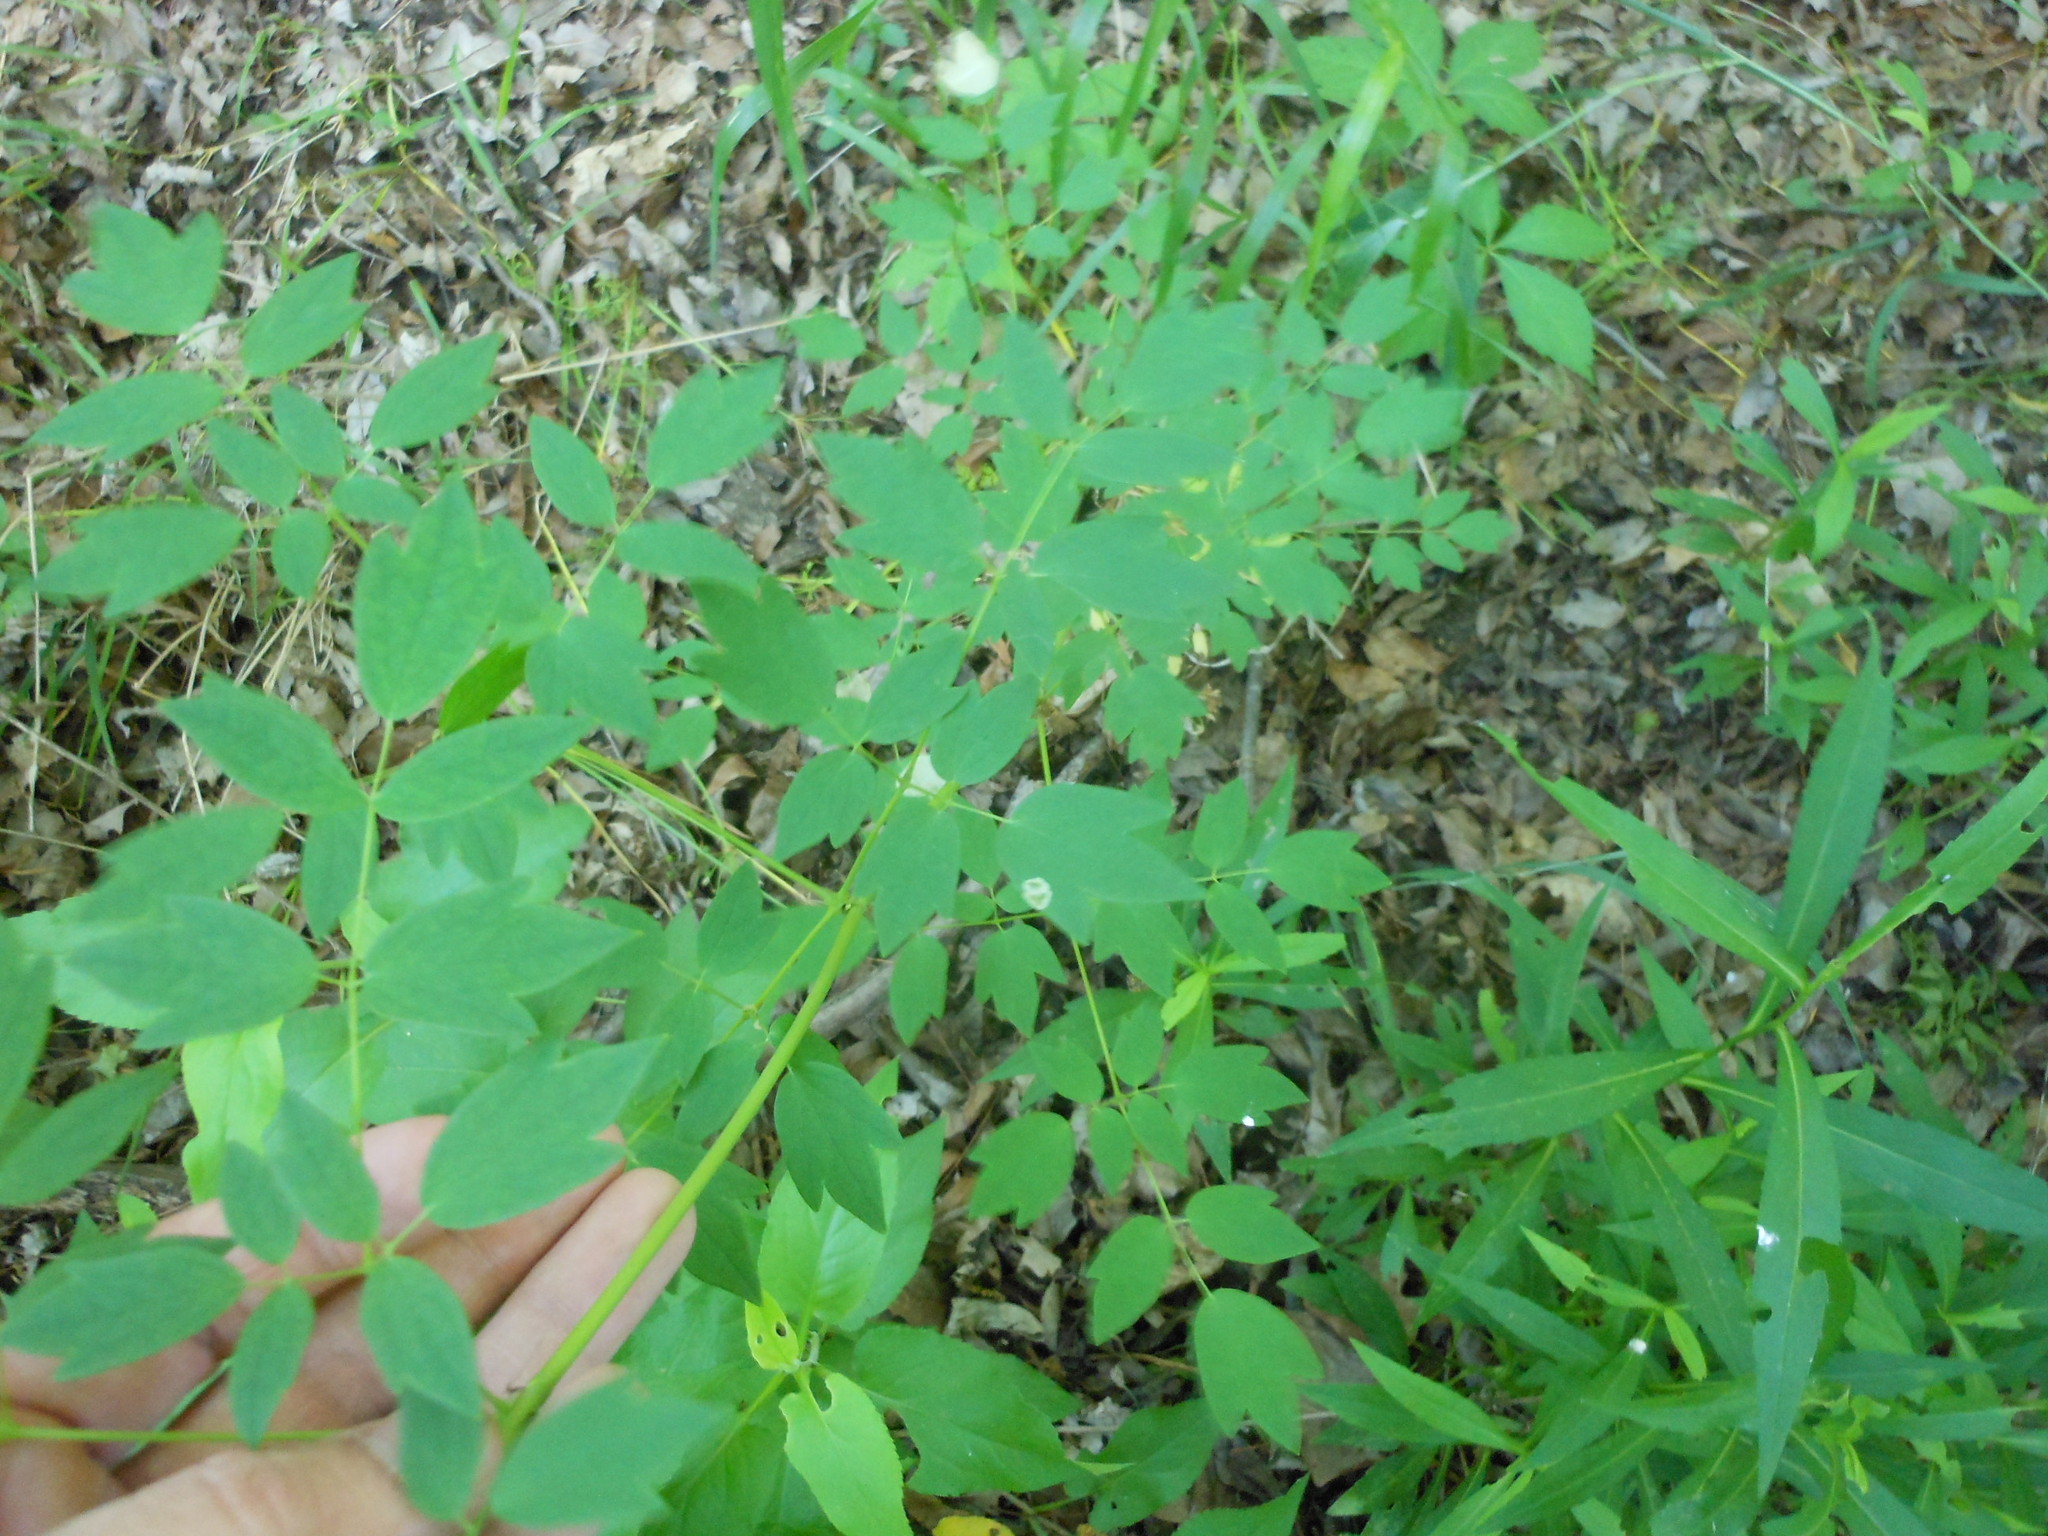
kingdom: Plantae
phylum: Tracheophyta
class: Magnoliopsida
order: Ranunculales
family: Ranunculaceae
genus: Thalictrum
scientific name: Thalictrum dasycarpum
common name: Purple meadow-rue
